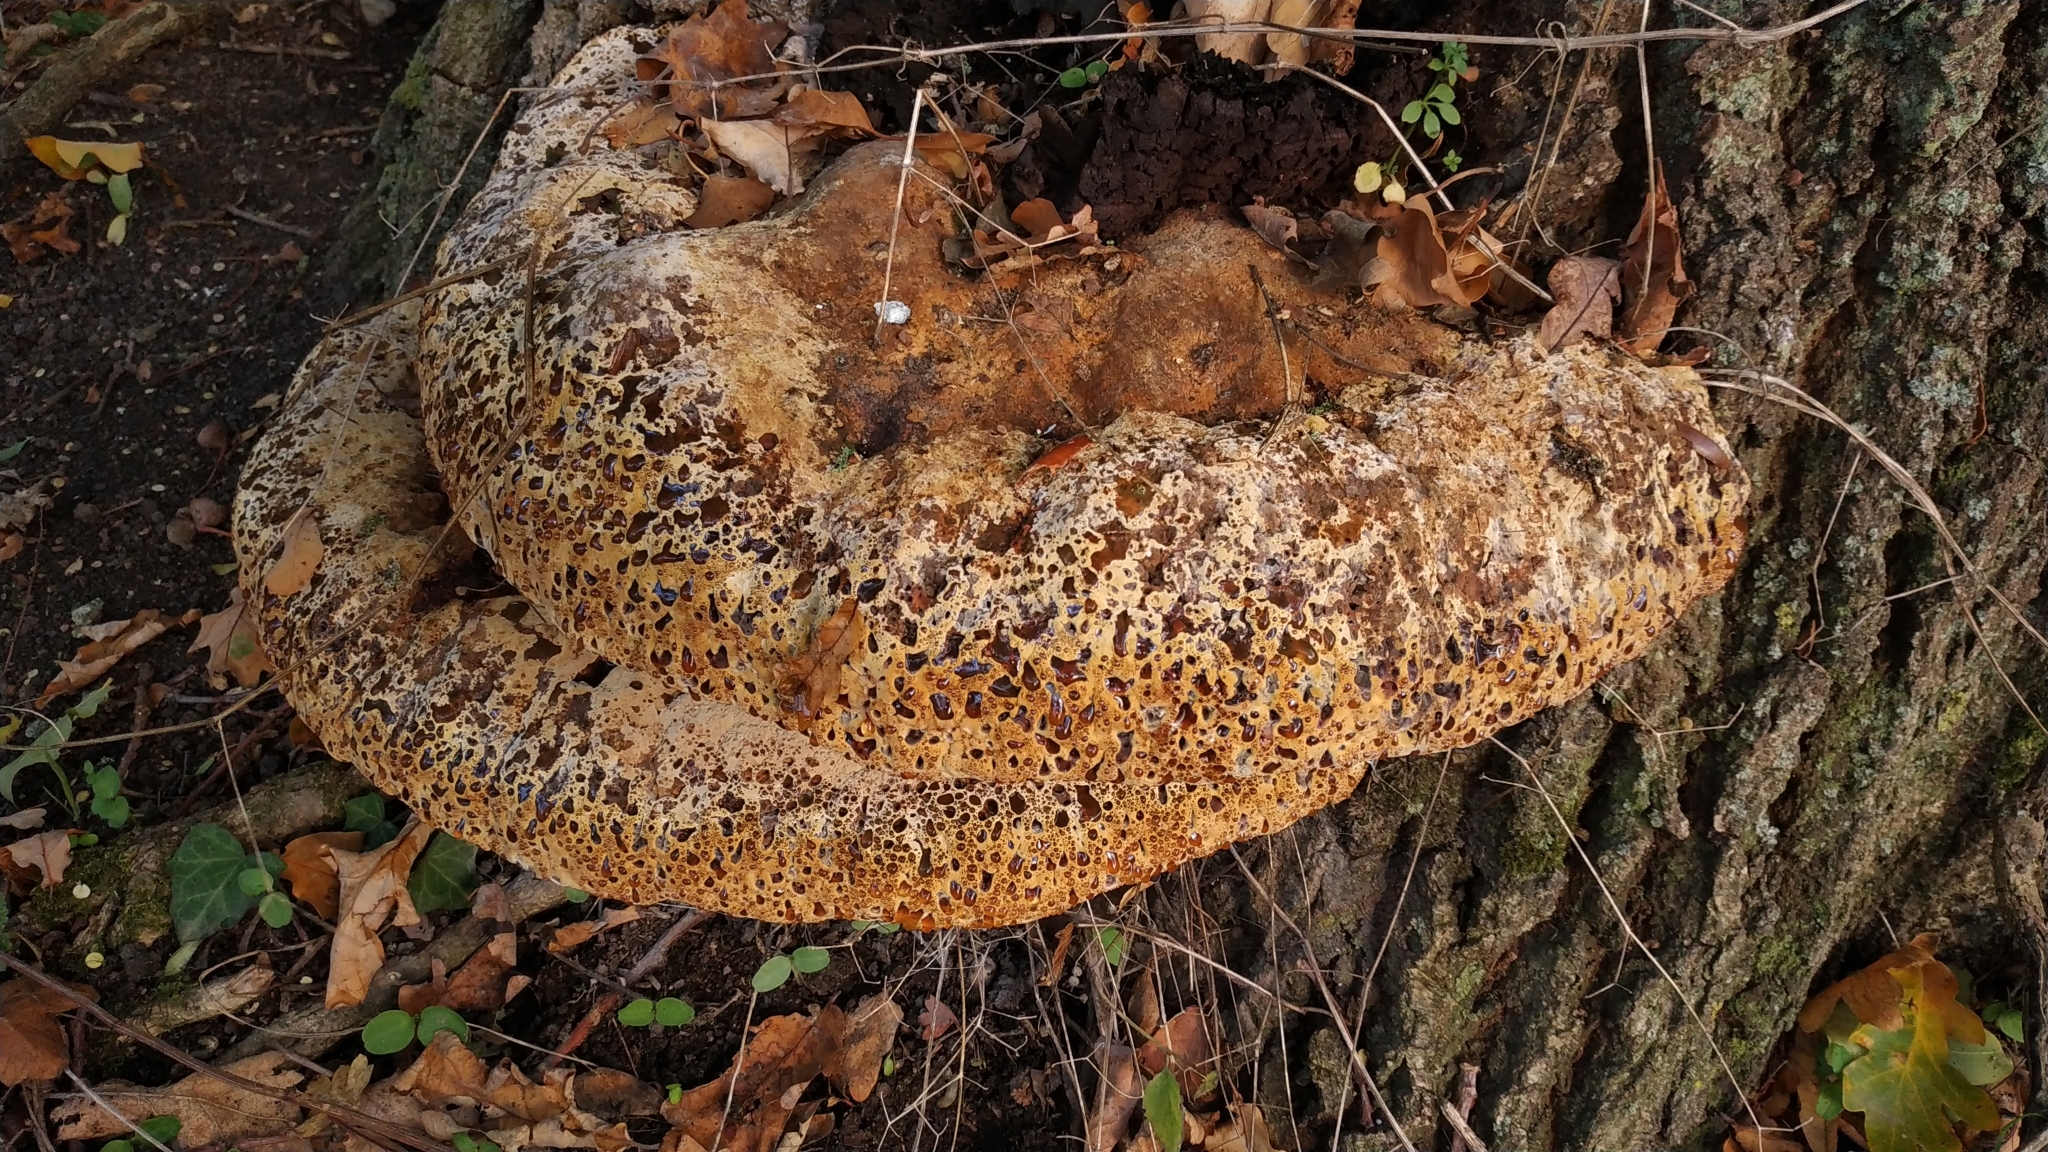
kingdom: Fungi
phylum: Basidiomycota
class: Agaricomycetes
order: Hymenochaetales
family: Hymenochaetaceae
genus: Pseudoinonotus
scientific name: Pseudoinonotus dryadeus
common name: Oak bracket
